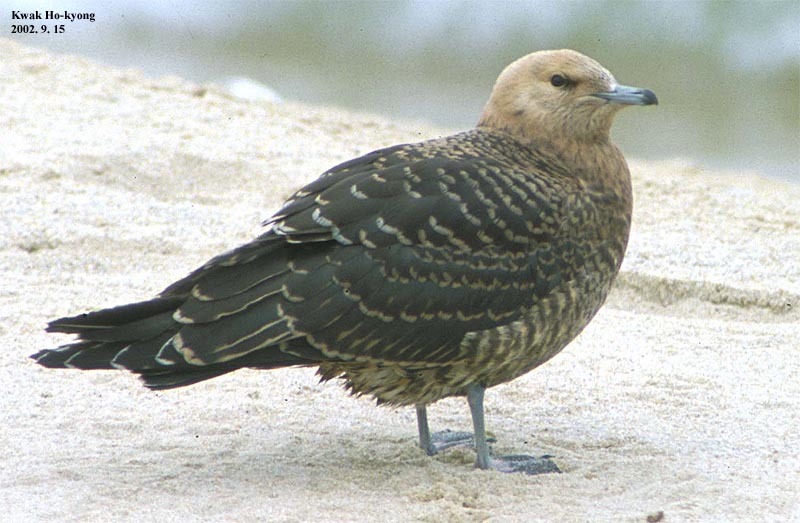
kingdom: Animalia
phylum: Chordata
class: Aves
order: Charadriiformes
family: Stercorariidae
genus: Stercorarius
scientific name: Stercorarius parasiticus
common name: Parasitic jaeger
